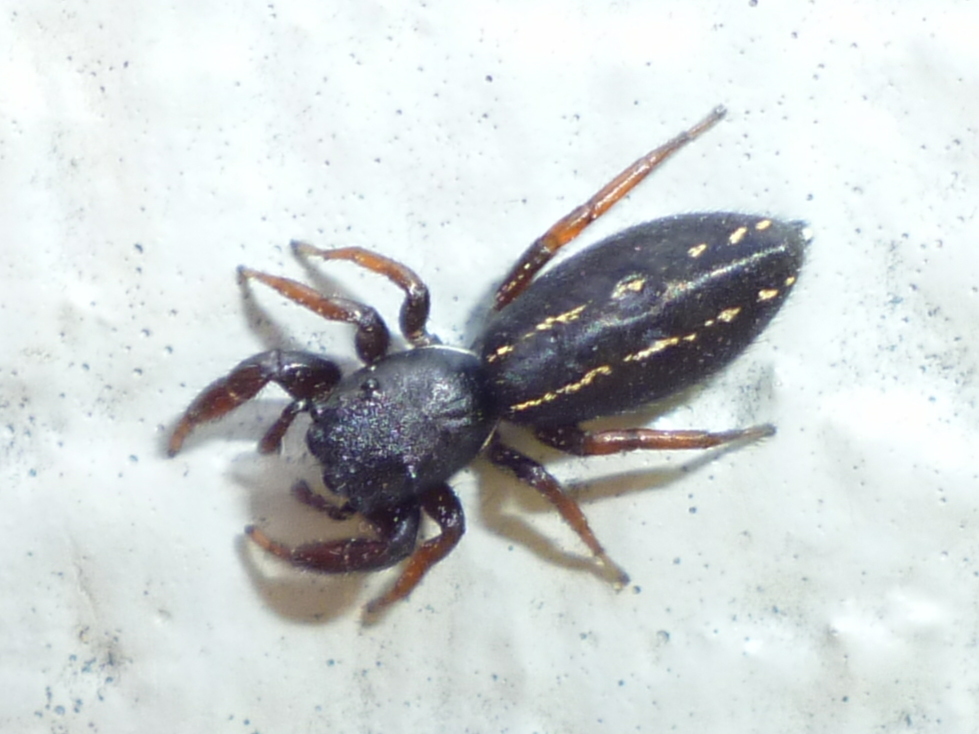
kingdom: Animalia
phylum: Arthropoda
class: Arachnida
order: Araneae
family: Salticidae
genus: Metacyrba
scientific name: Metacyrba taeniola
